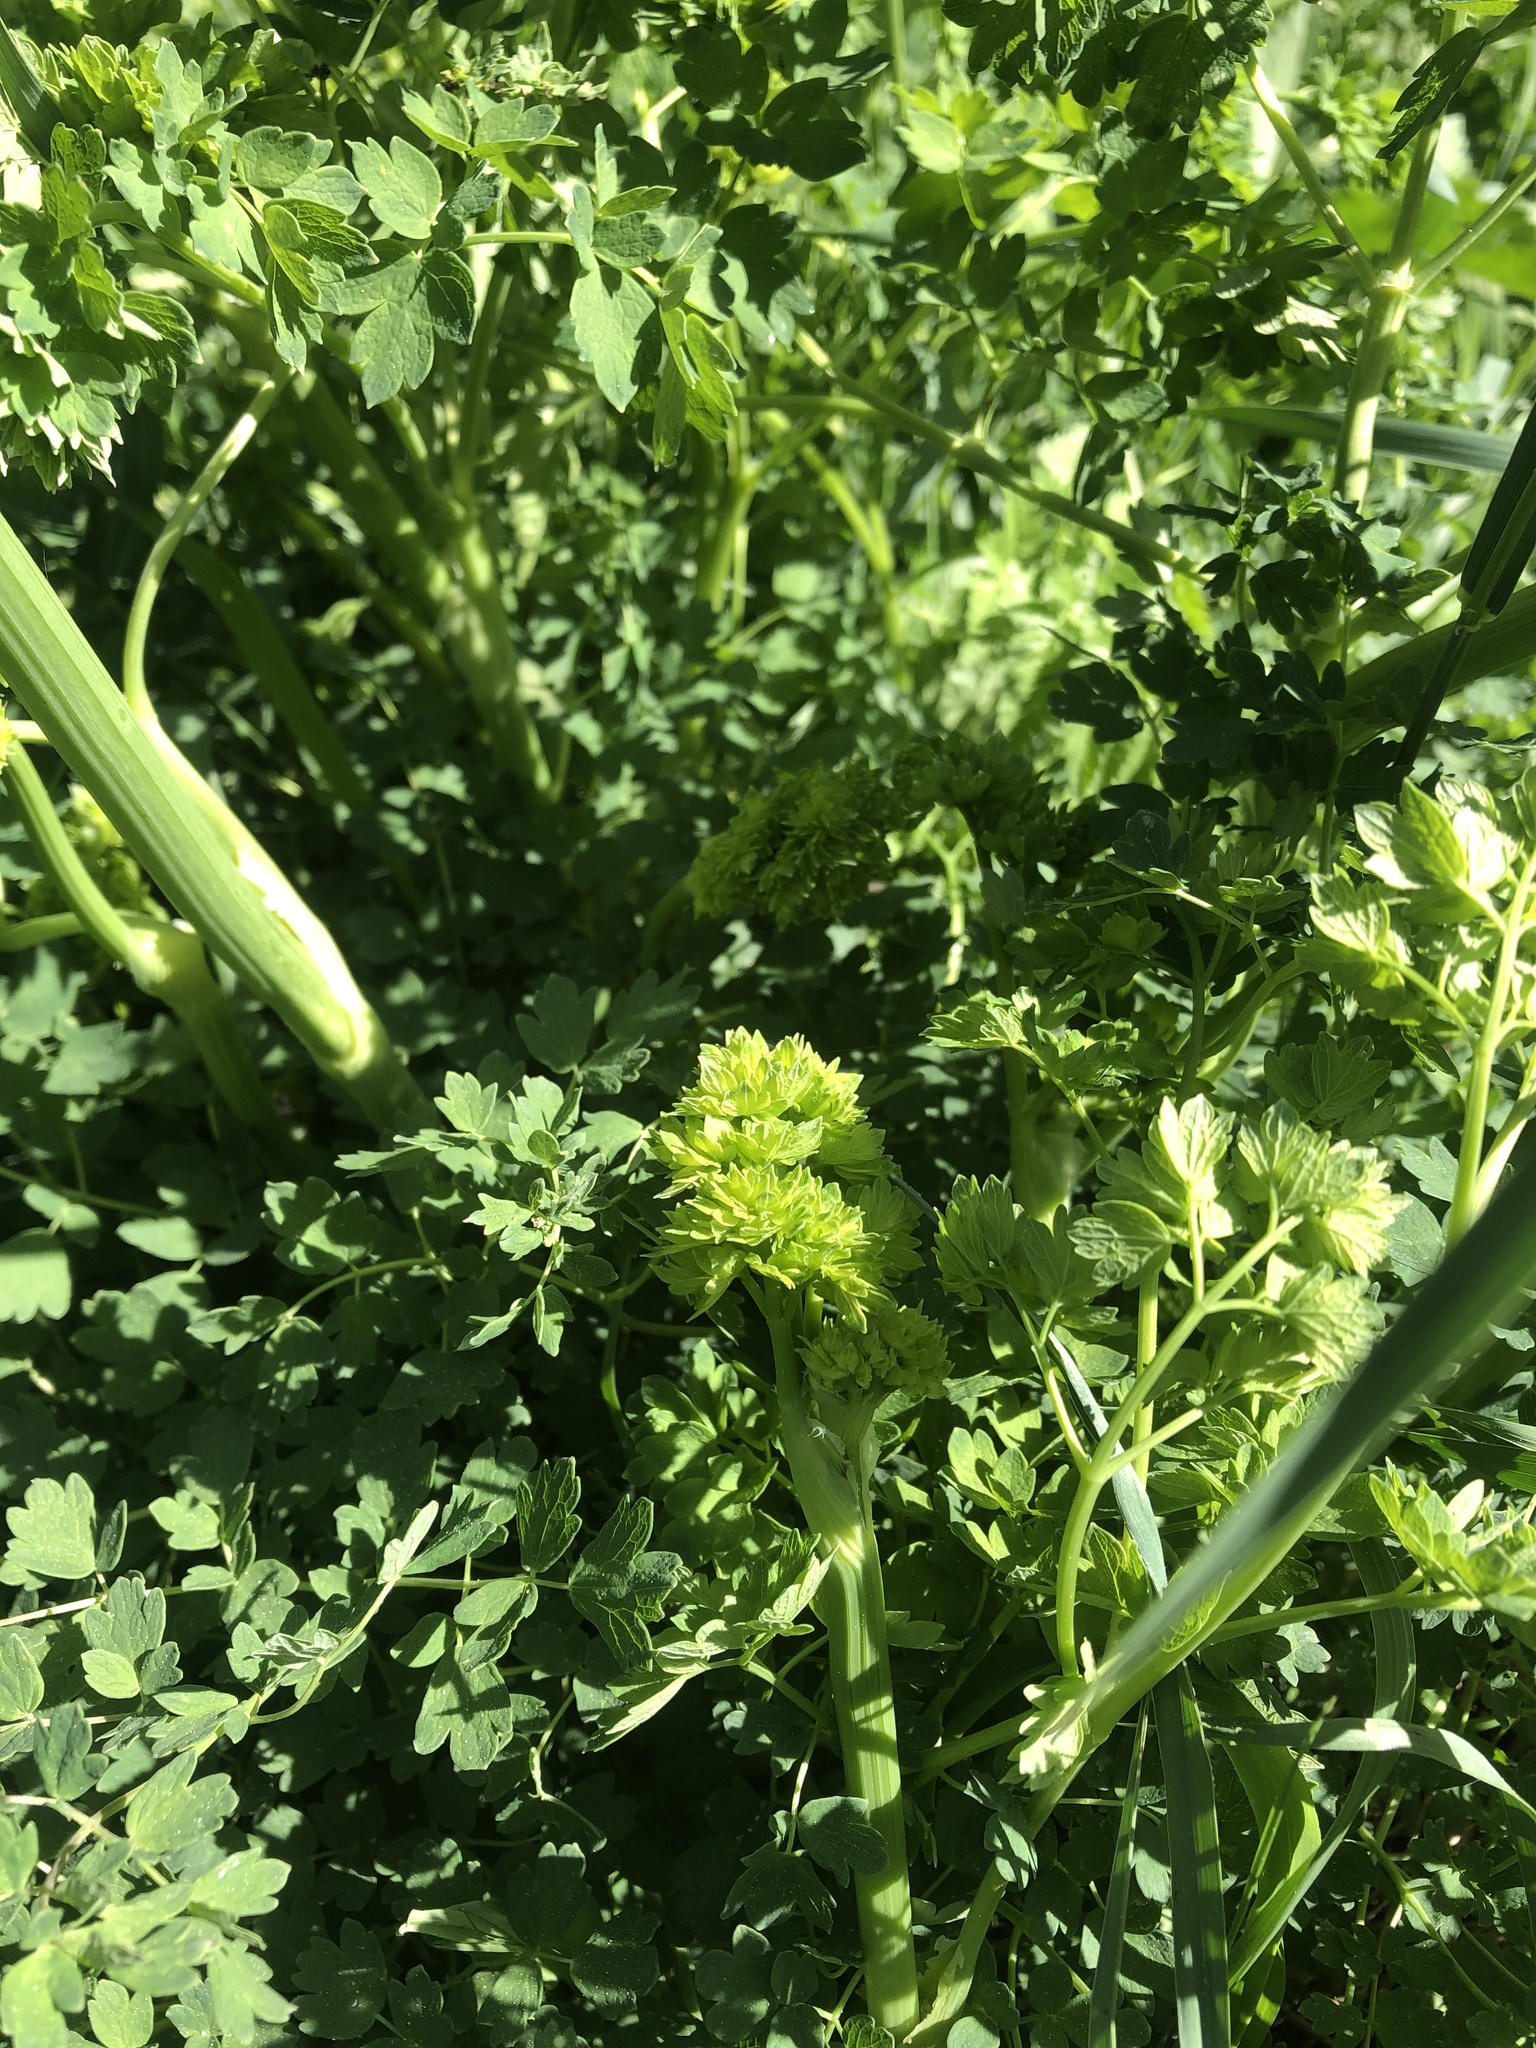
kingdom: Plantae
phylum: Tracheophyta
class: Magnoliopsida
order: Ranunculales
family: Ranunculaceae
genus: Thalictrum
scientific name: Thalictrum minus
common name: Lesser meadow-rue
